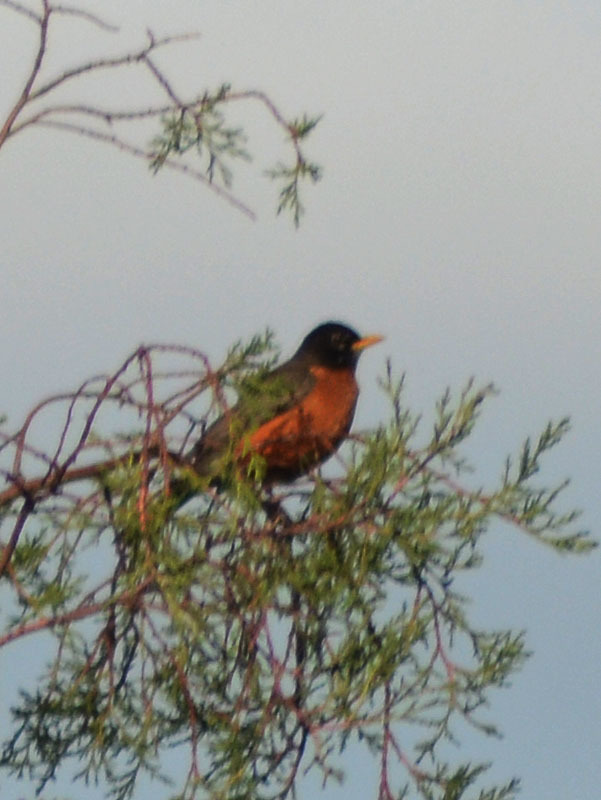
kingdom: Animalia
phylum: Chordata
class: Aves
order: Passeriformes
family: Turdidae
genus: Turdus
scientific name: Turdus migratorius
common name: American robin
